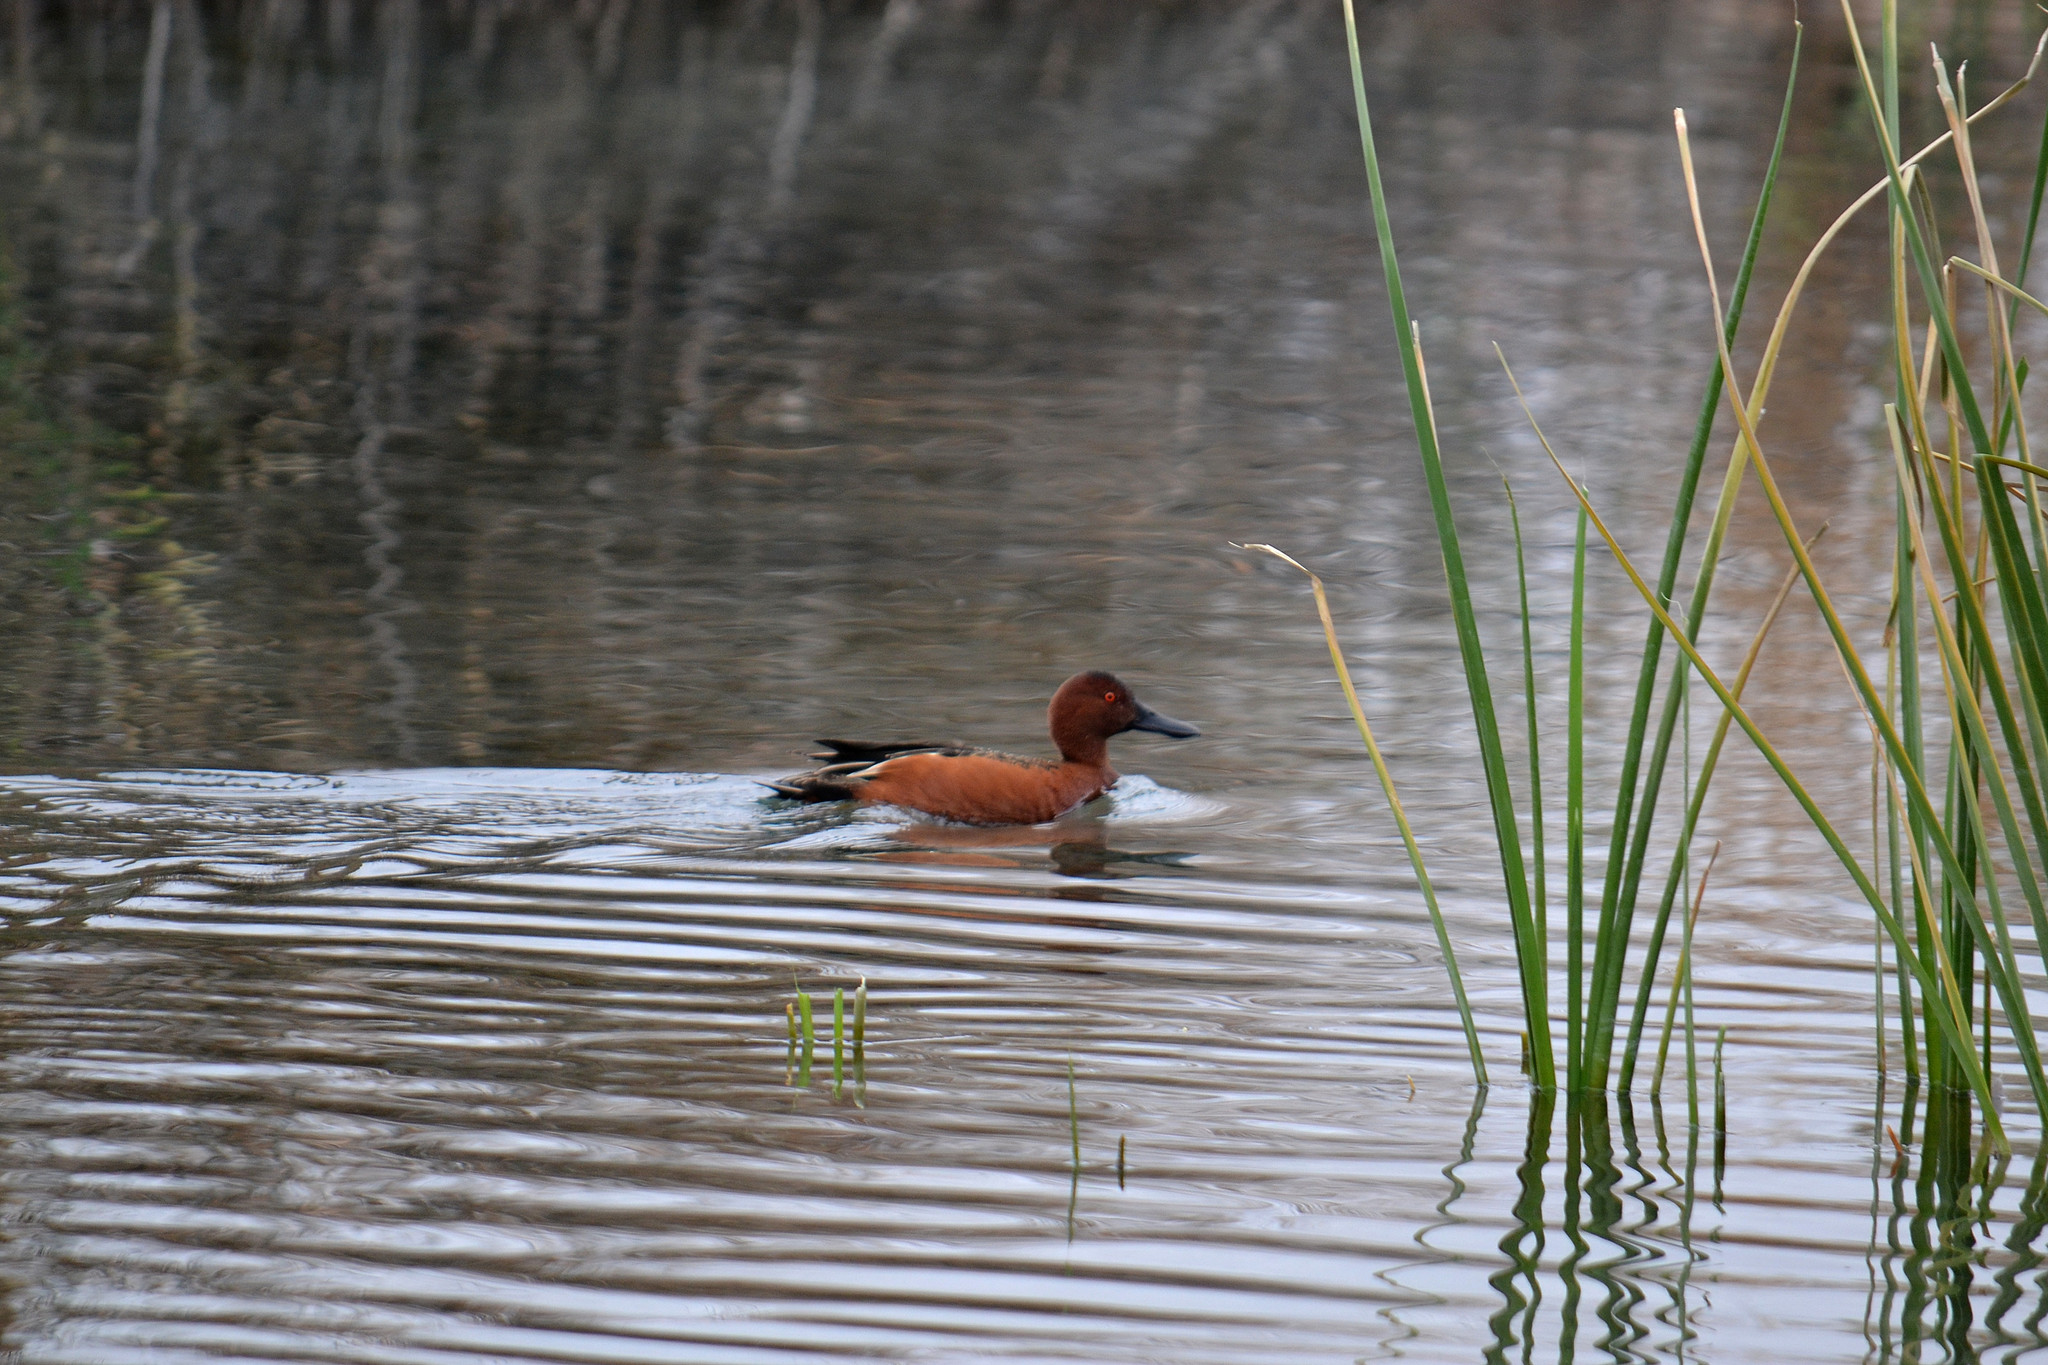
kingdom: Animalia
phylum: Chordata
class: Aves
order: Anseriformes
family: Anatidae
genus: Spatula
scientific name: Spatula cyanoptera
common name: Cinnamon teal
